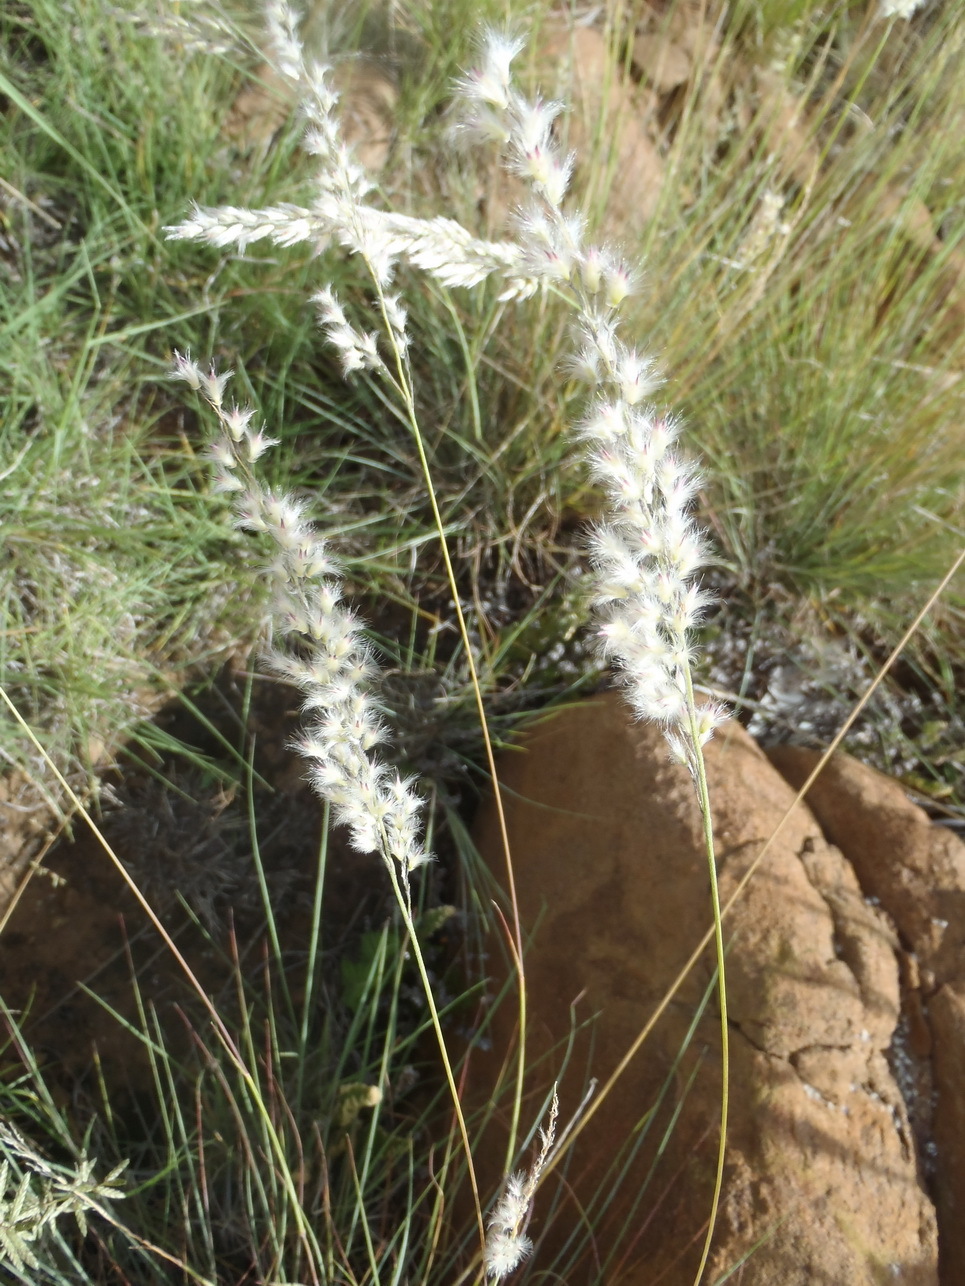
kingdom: Plantae
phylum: Tracheophyta
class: Liliopsida
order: Poales
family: Poaceae
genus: Melinis
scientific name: Melinis repens
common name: Rose natal grass
